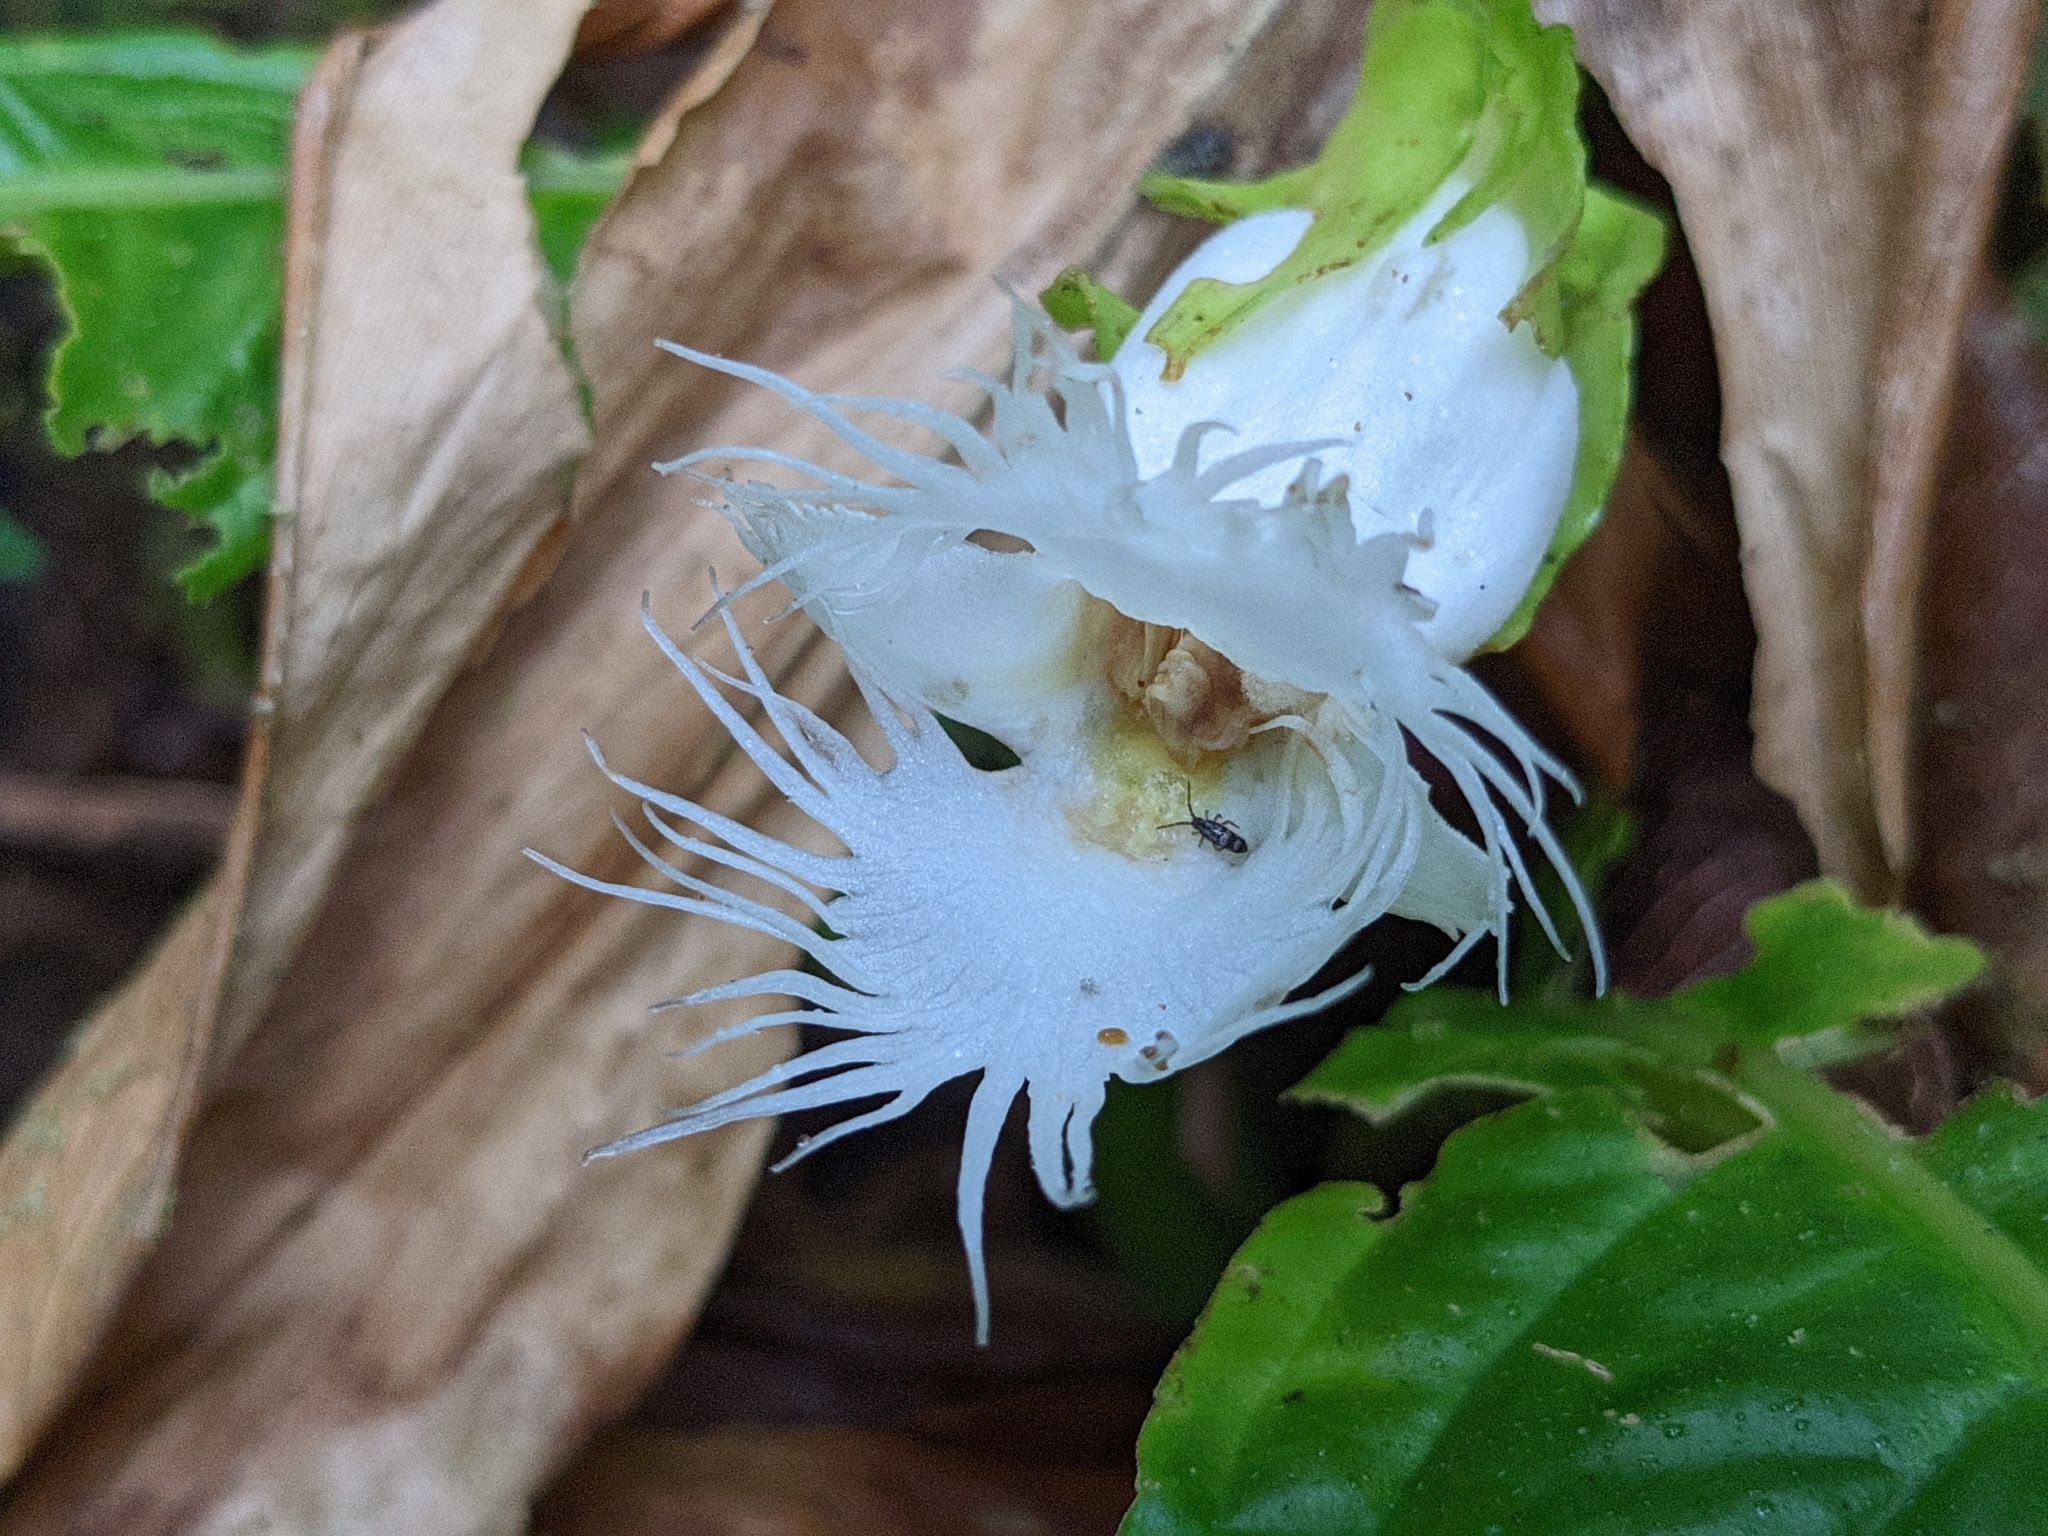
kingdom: Plantae
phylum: Tracheophyta
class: Magnoliopsida
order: Lamiales
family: Gesneriaceae
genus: Drymonia
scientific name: Drymonia lanceolata
